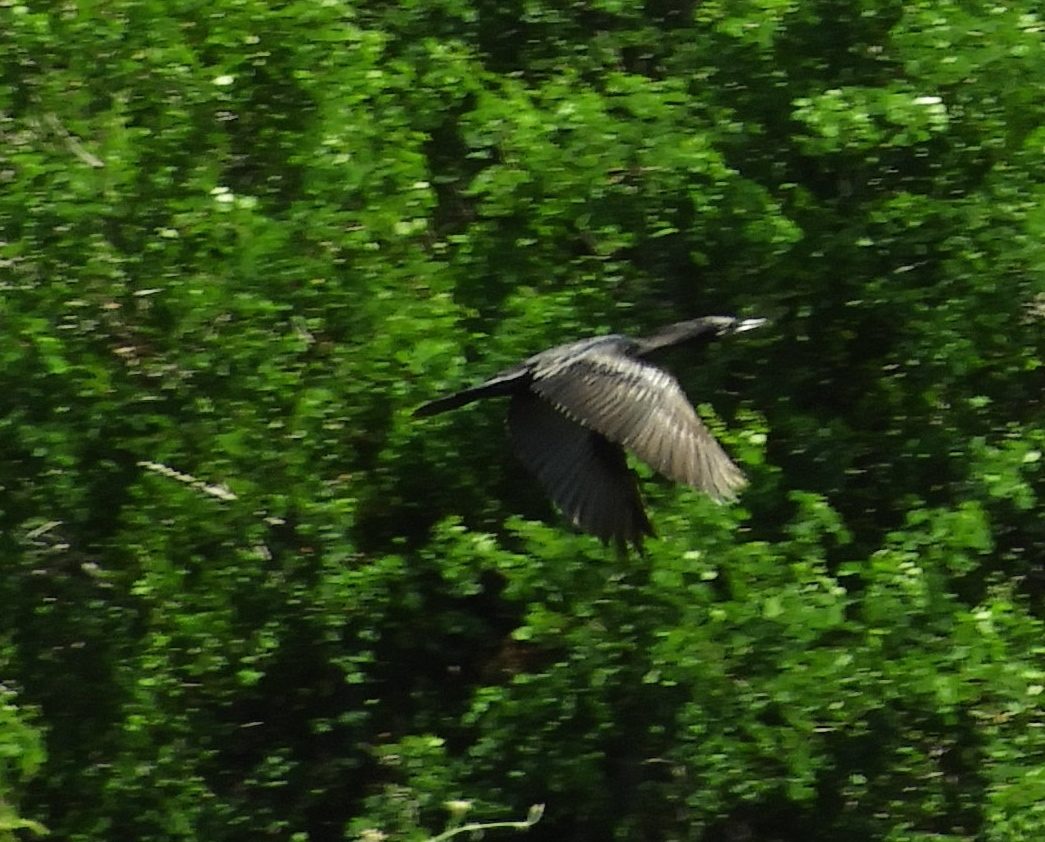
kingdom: Animalia
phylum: Chordata
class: Aves
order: Suliformes
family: Phalacrocoracidae
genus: Phalacrocorax
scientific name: Phalacrocorax brasilianus
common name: Neotropic cormorant
